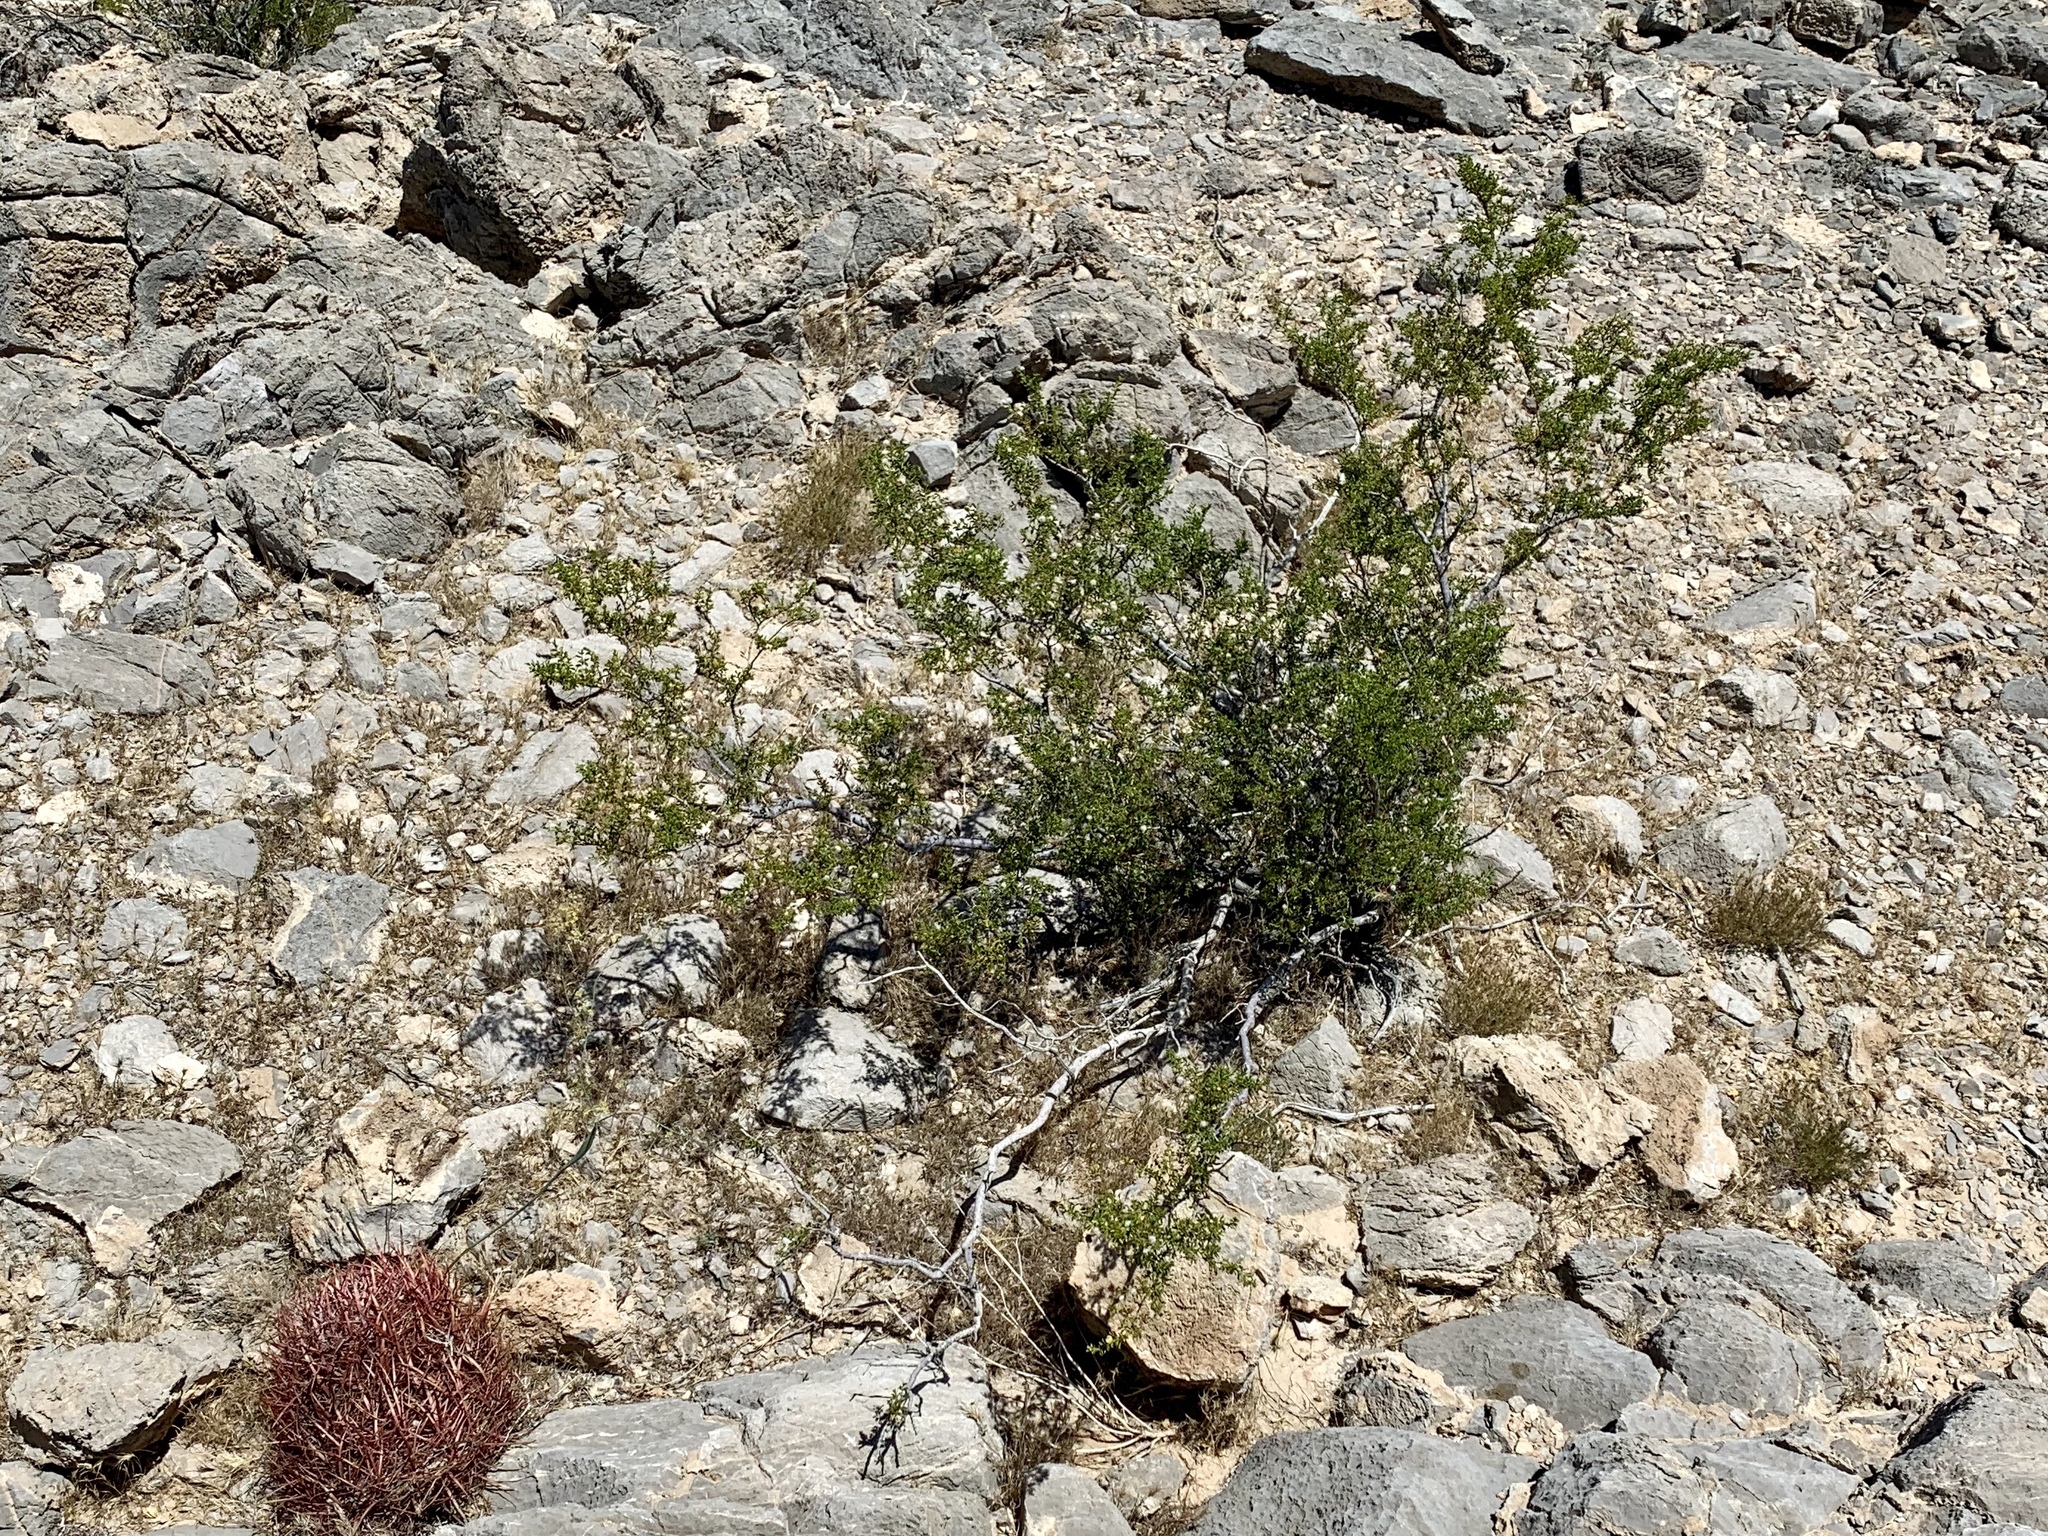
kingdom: Plantae
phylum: Tracheophyta
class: Magnoliopsida
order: Zygophyllales
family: Zygophyllaceae
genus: Larrea
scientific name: Larrea tridentata
